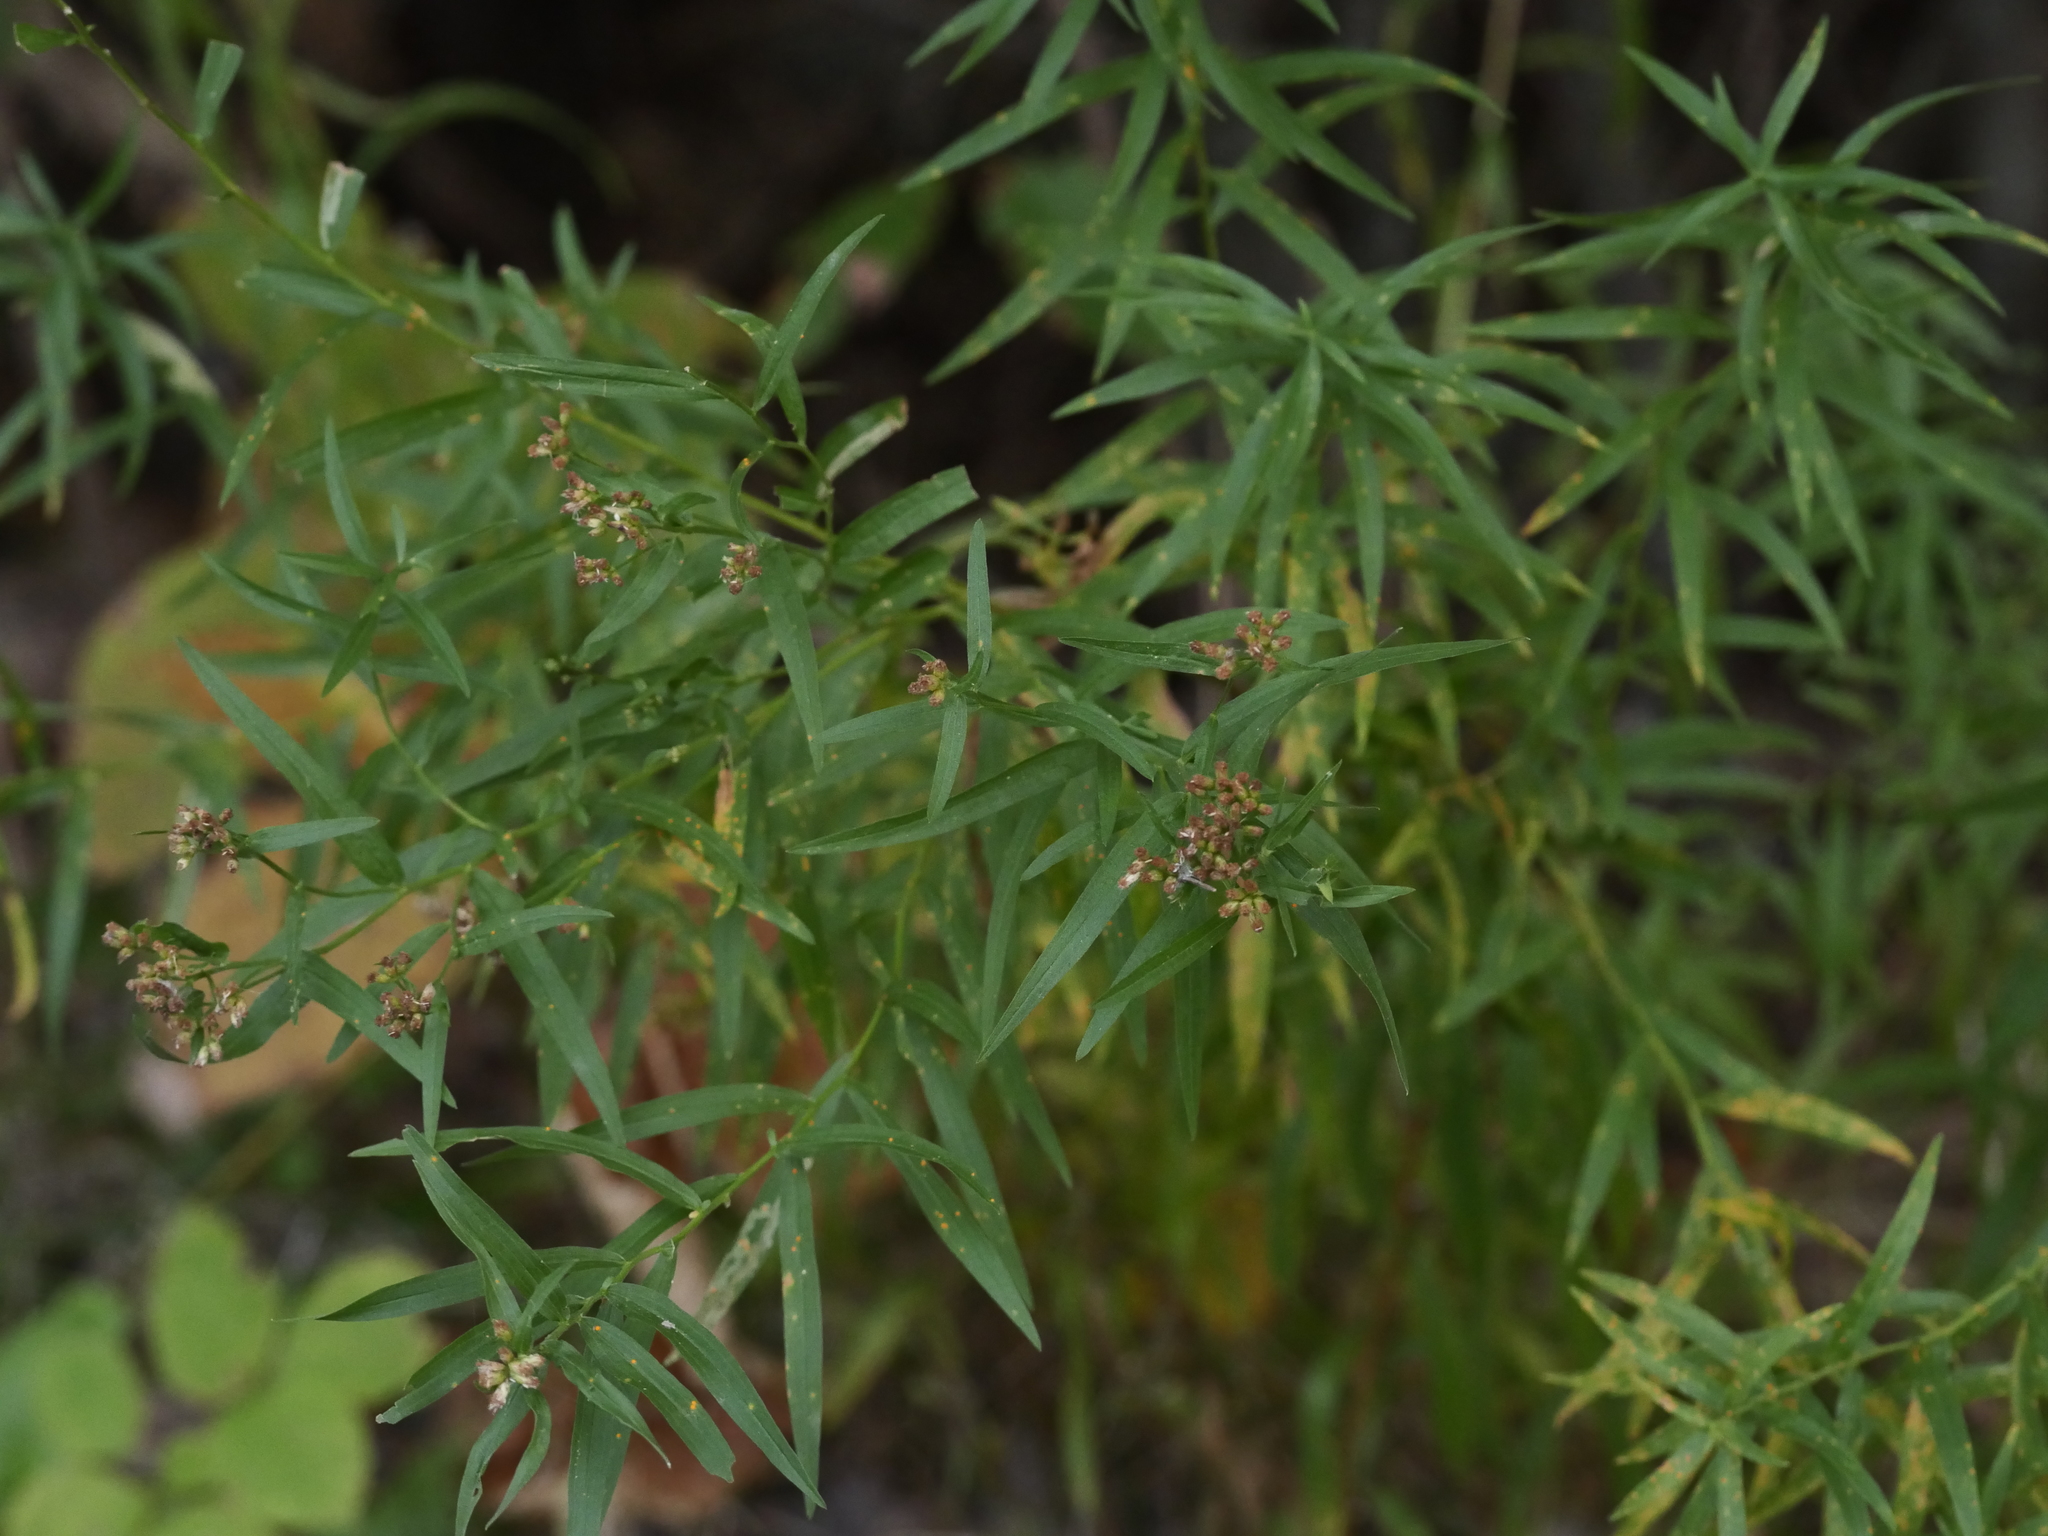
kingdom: Plantae
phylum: Tracheophyta
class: Magnoliopsida
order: Asterales
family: Asteraceae
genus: Euthamia
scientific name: Euthamia graminifolia
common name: Common goldentop
